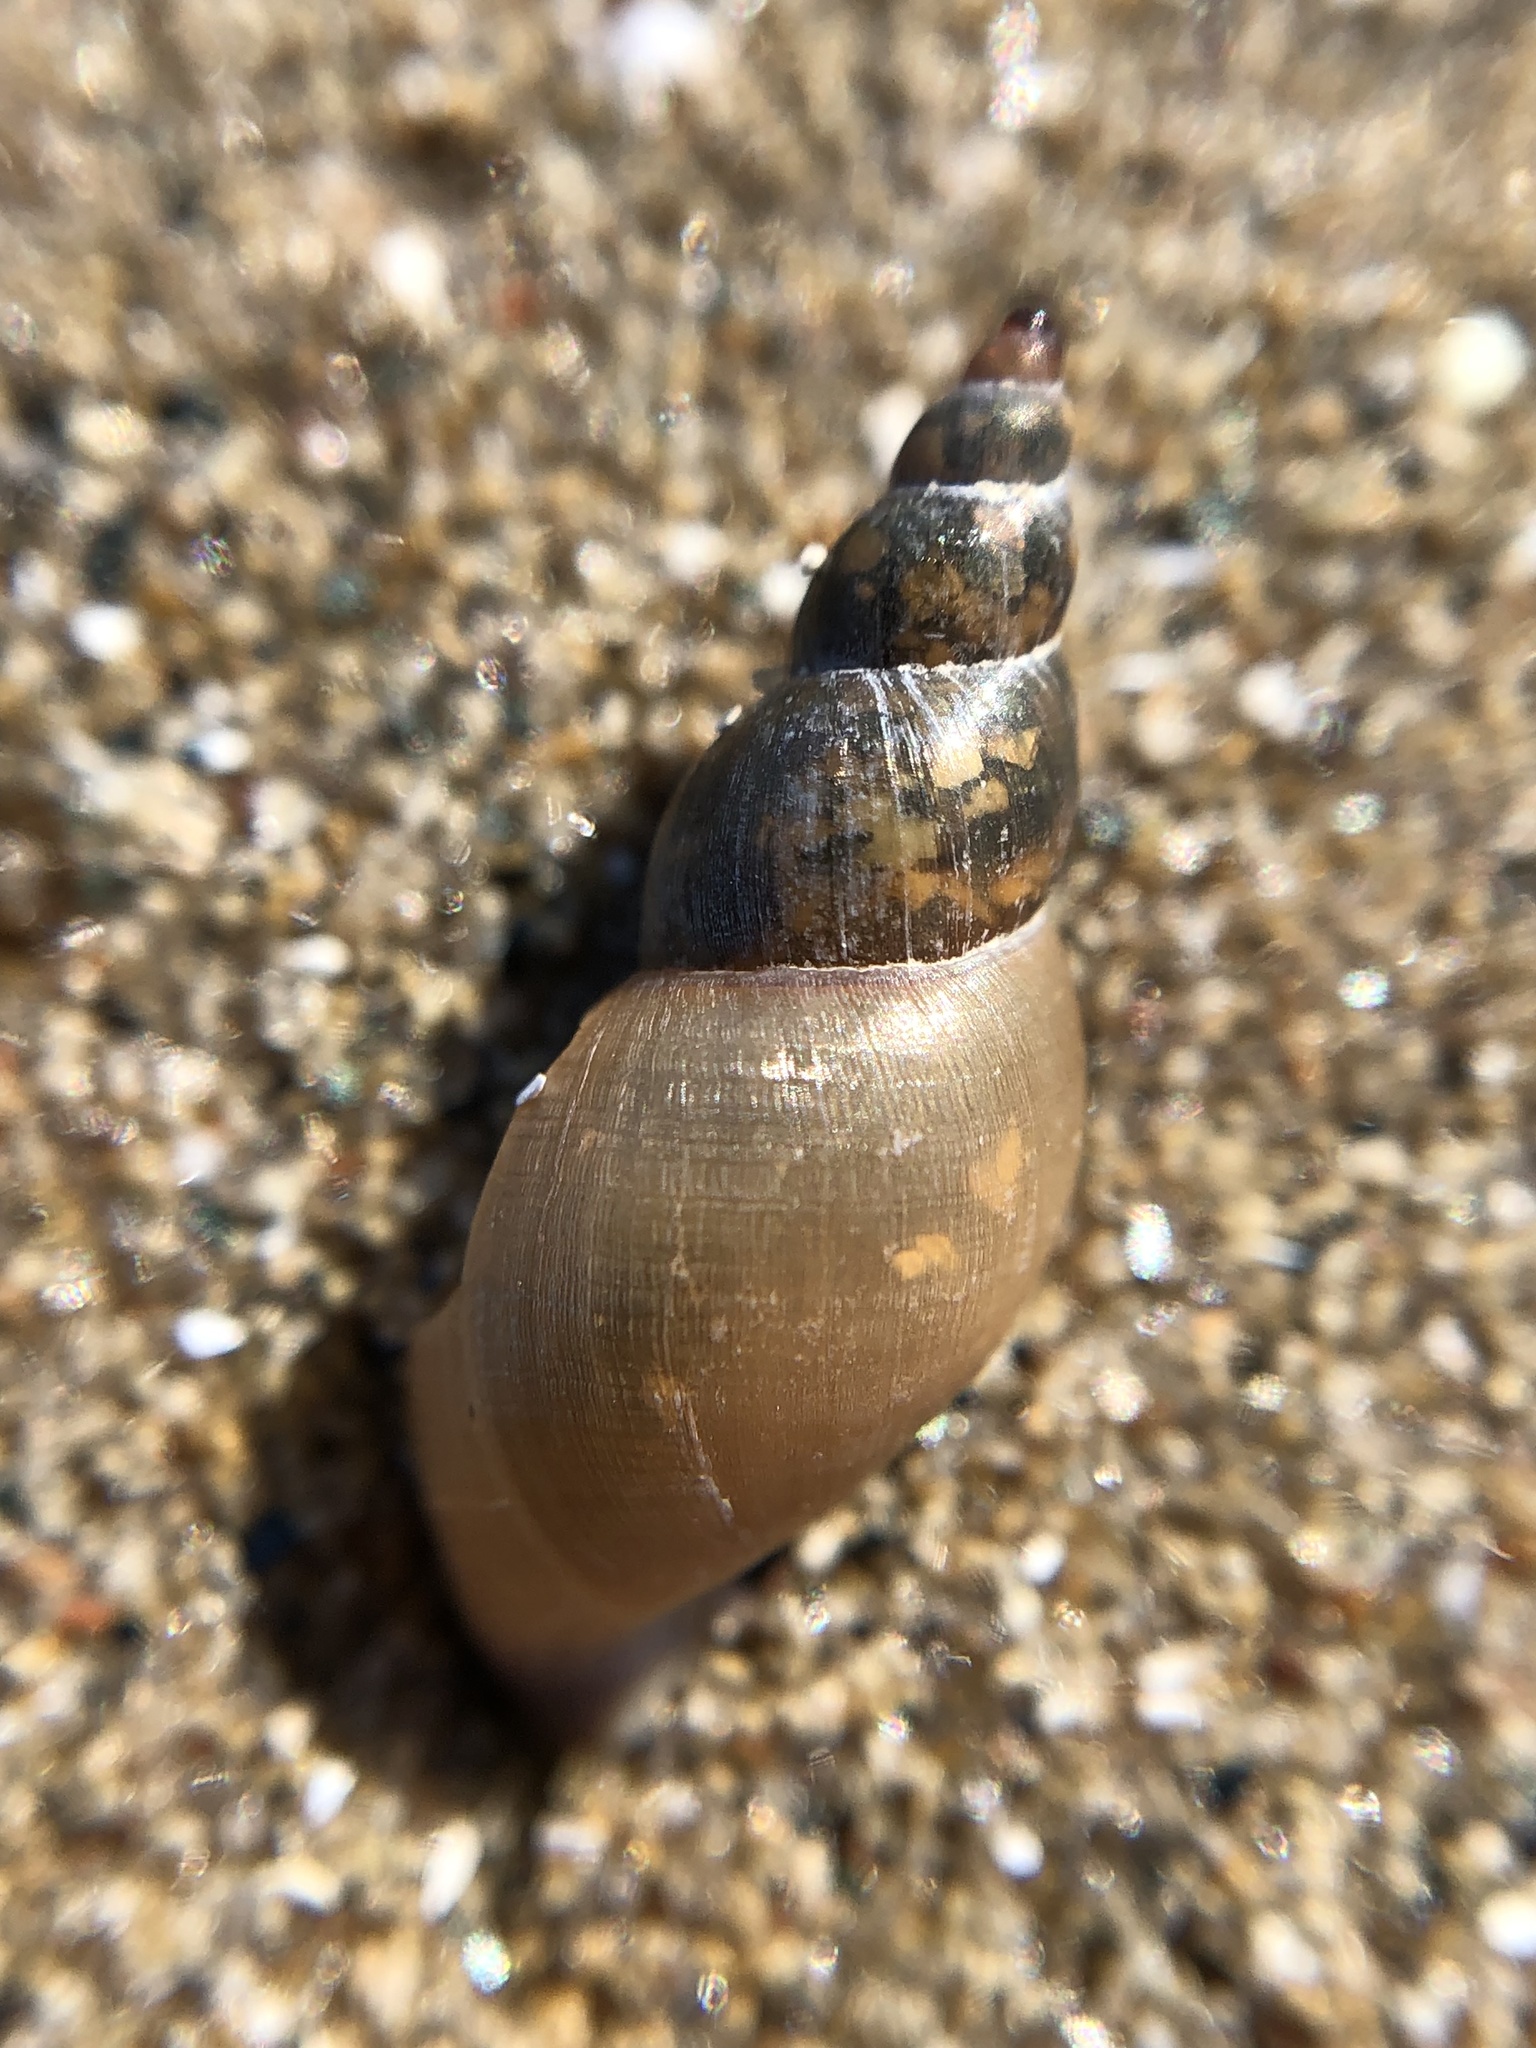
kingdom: Animalia
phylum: Mollusca
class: Gastropoda
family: Lymnaeidae
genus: Ladislavella
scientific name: Ladislavella elodes
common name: Marsh pondsnail
